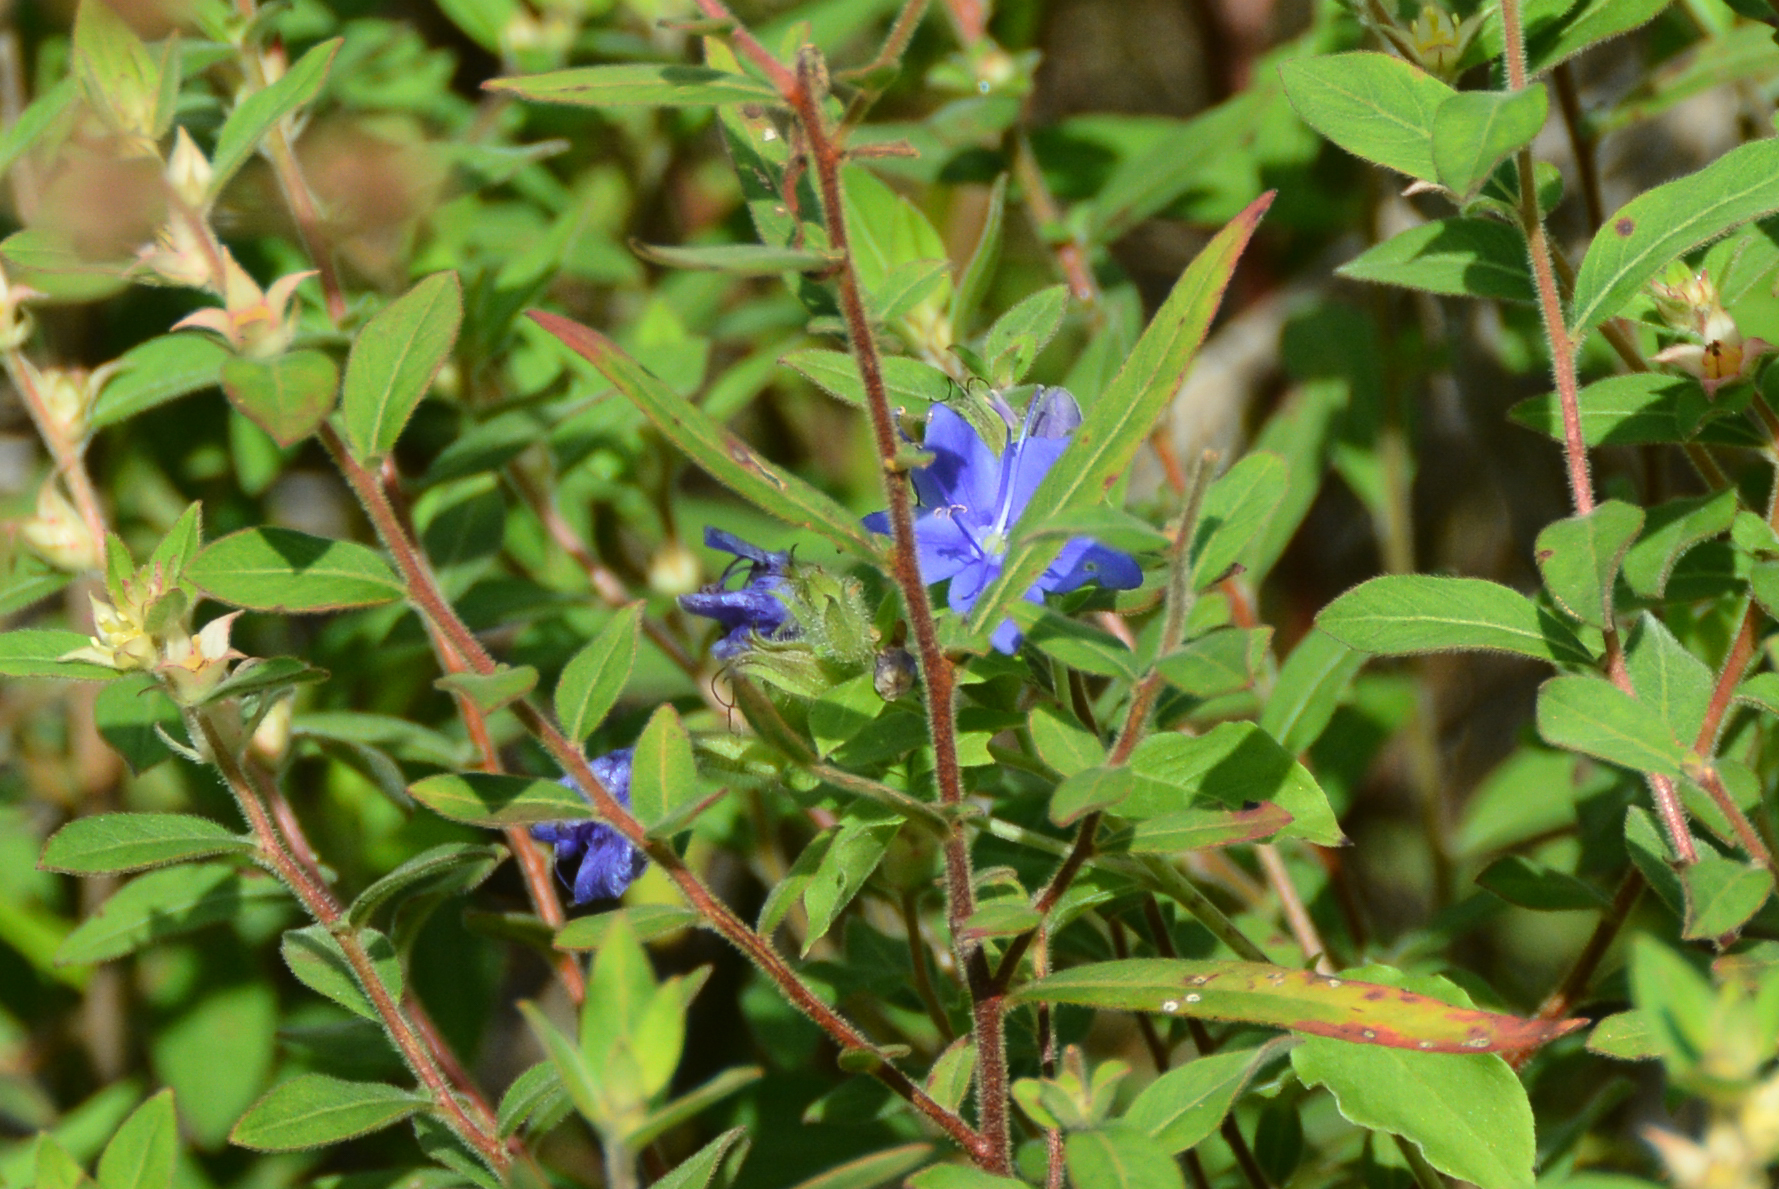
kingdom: Plantae
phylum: Tracheophyta
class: Magnoliopsida
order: Myrtales
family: Onagraceae
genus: Ludwigia
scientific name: Ludwigia pilosa
